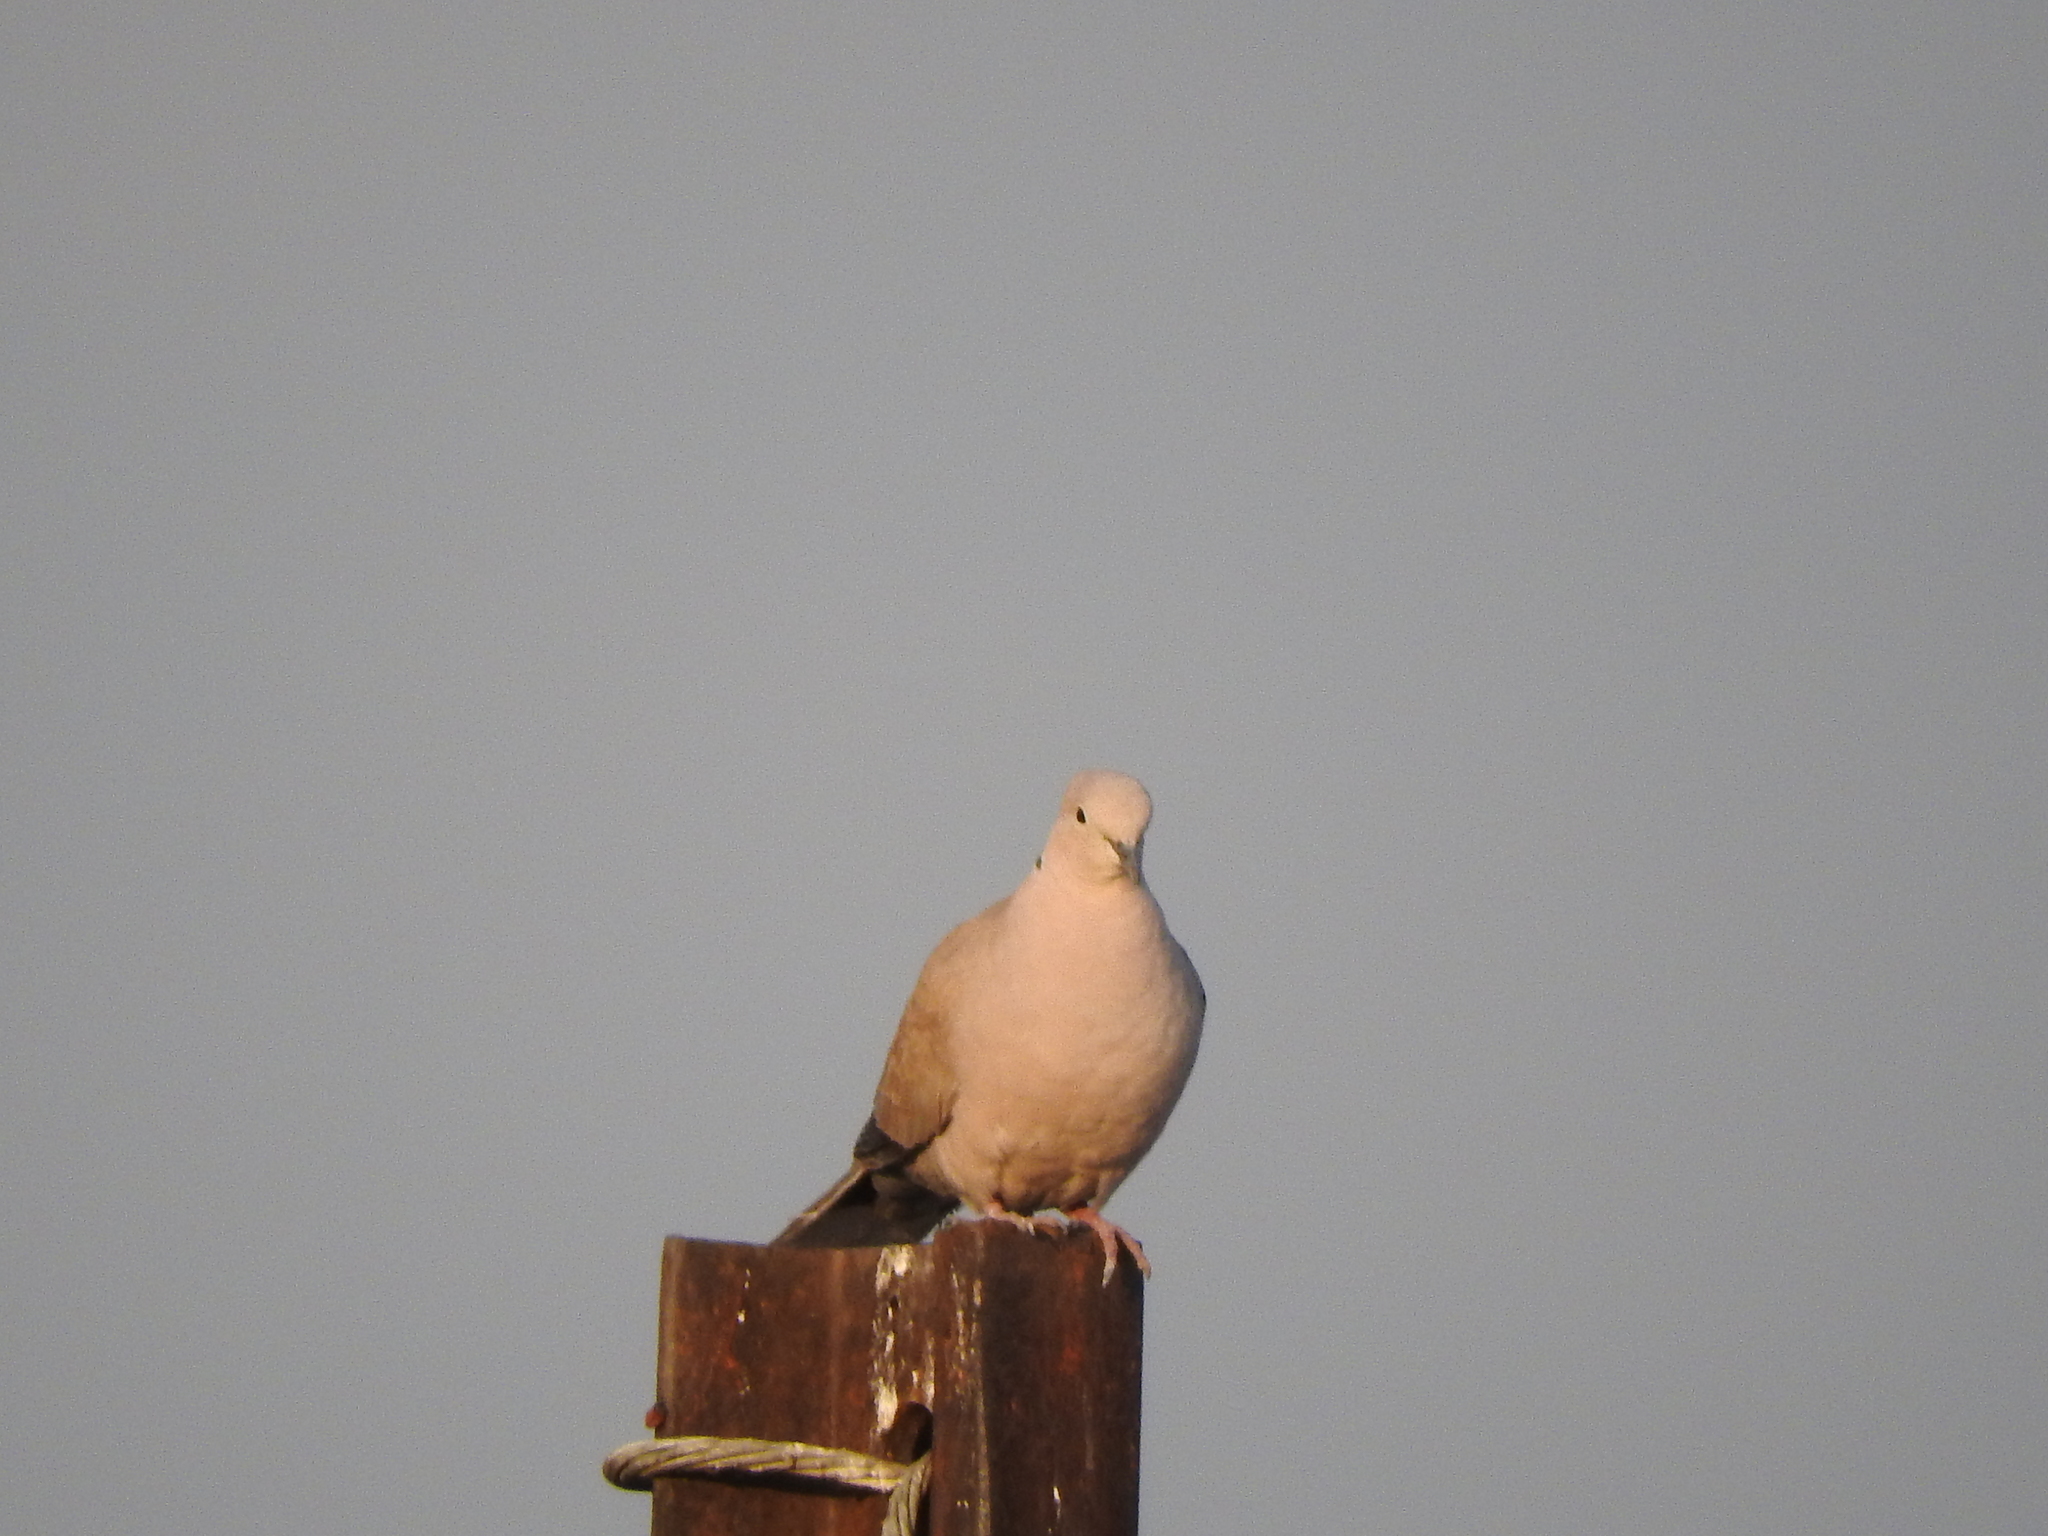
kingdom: Animalia
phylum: Chordata
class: Aves
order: Columbiformes
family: Columbidae
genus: Streptopelia
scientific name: Streptopelia decaocto
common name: Eurasian collared dove
